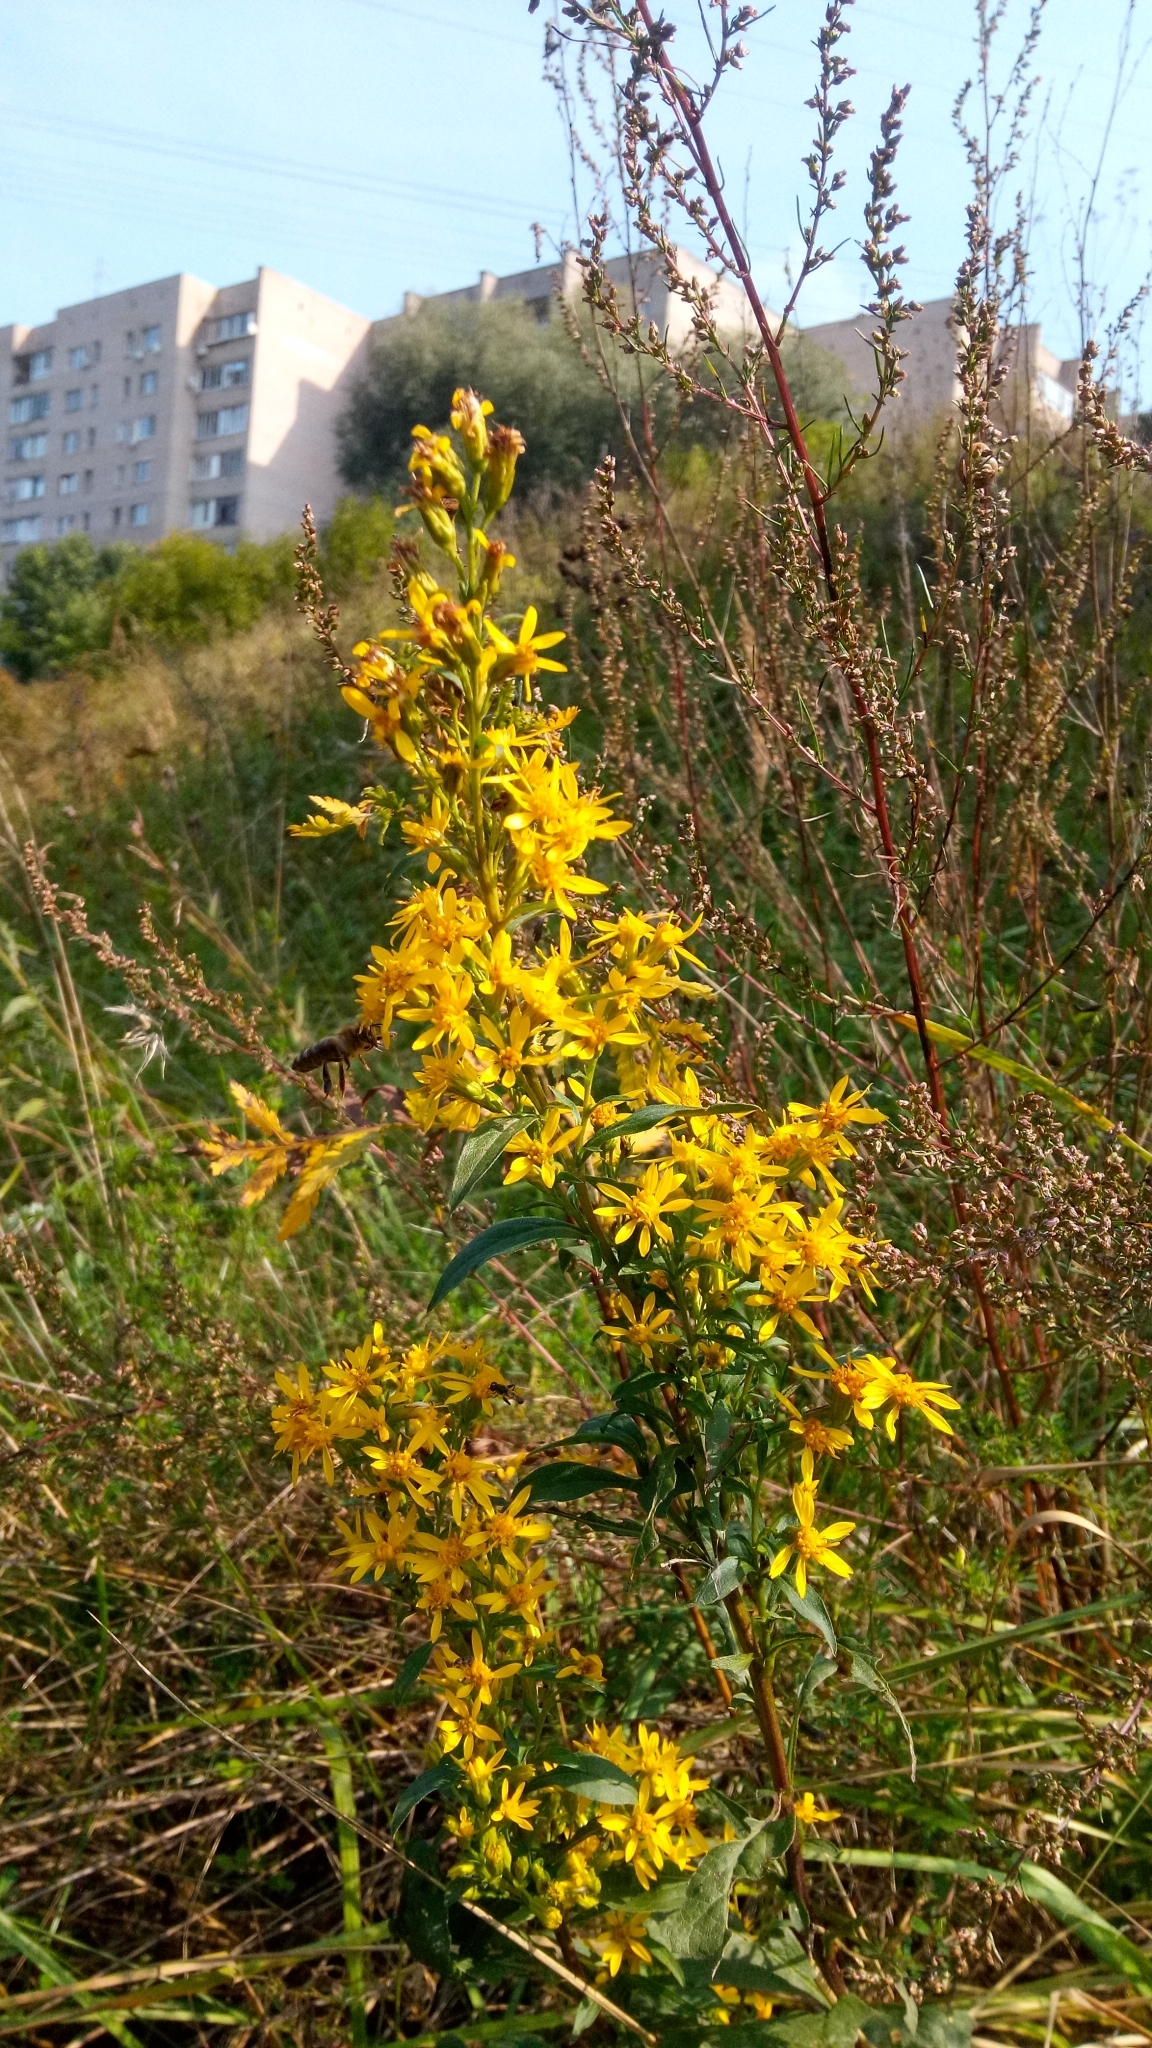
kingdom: Plantae
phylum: Tracheophyta
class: Magnoliopsida
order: Asterales
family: Asteraceae
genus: Solidago
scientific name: Solidago virgaurea
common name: Goldenrod
